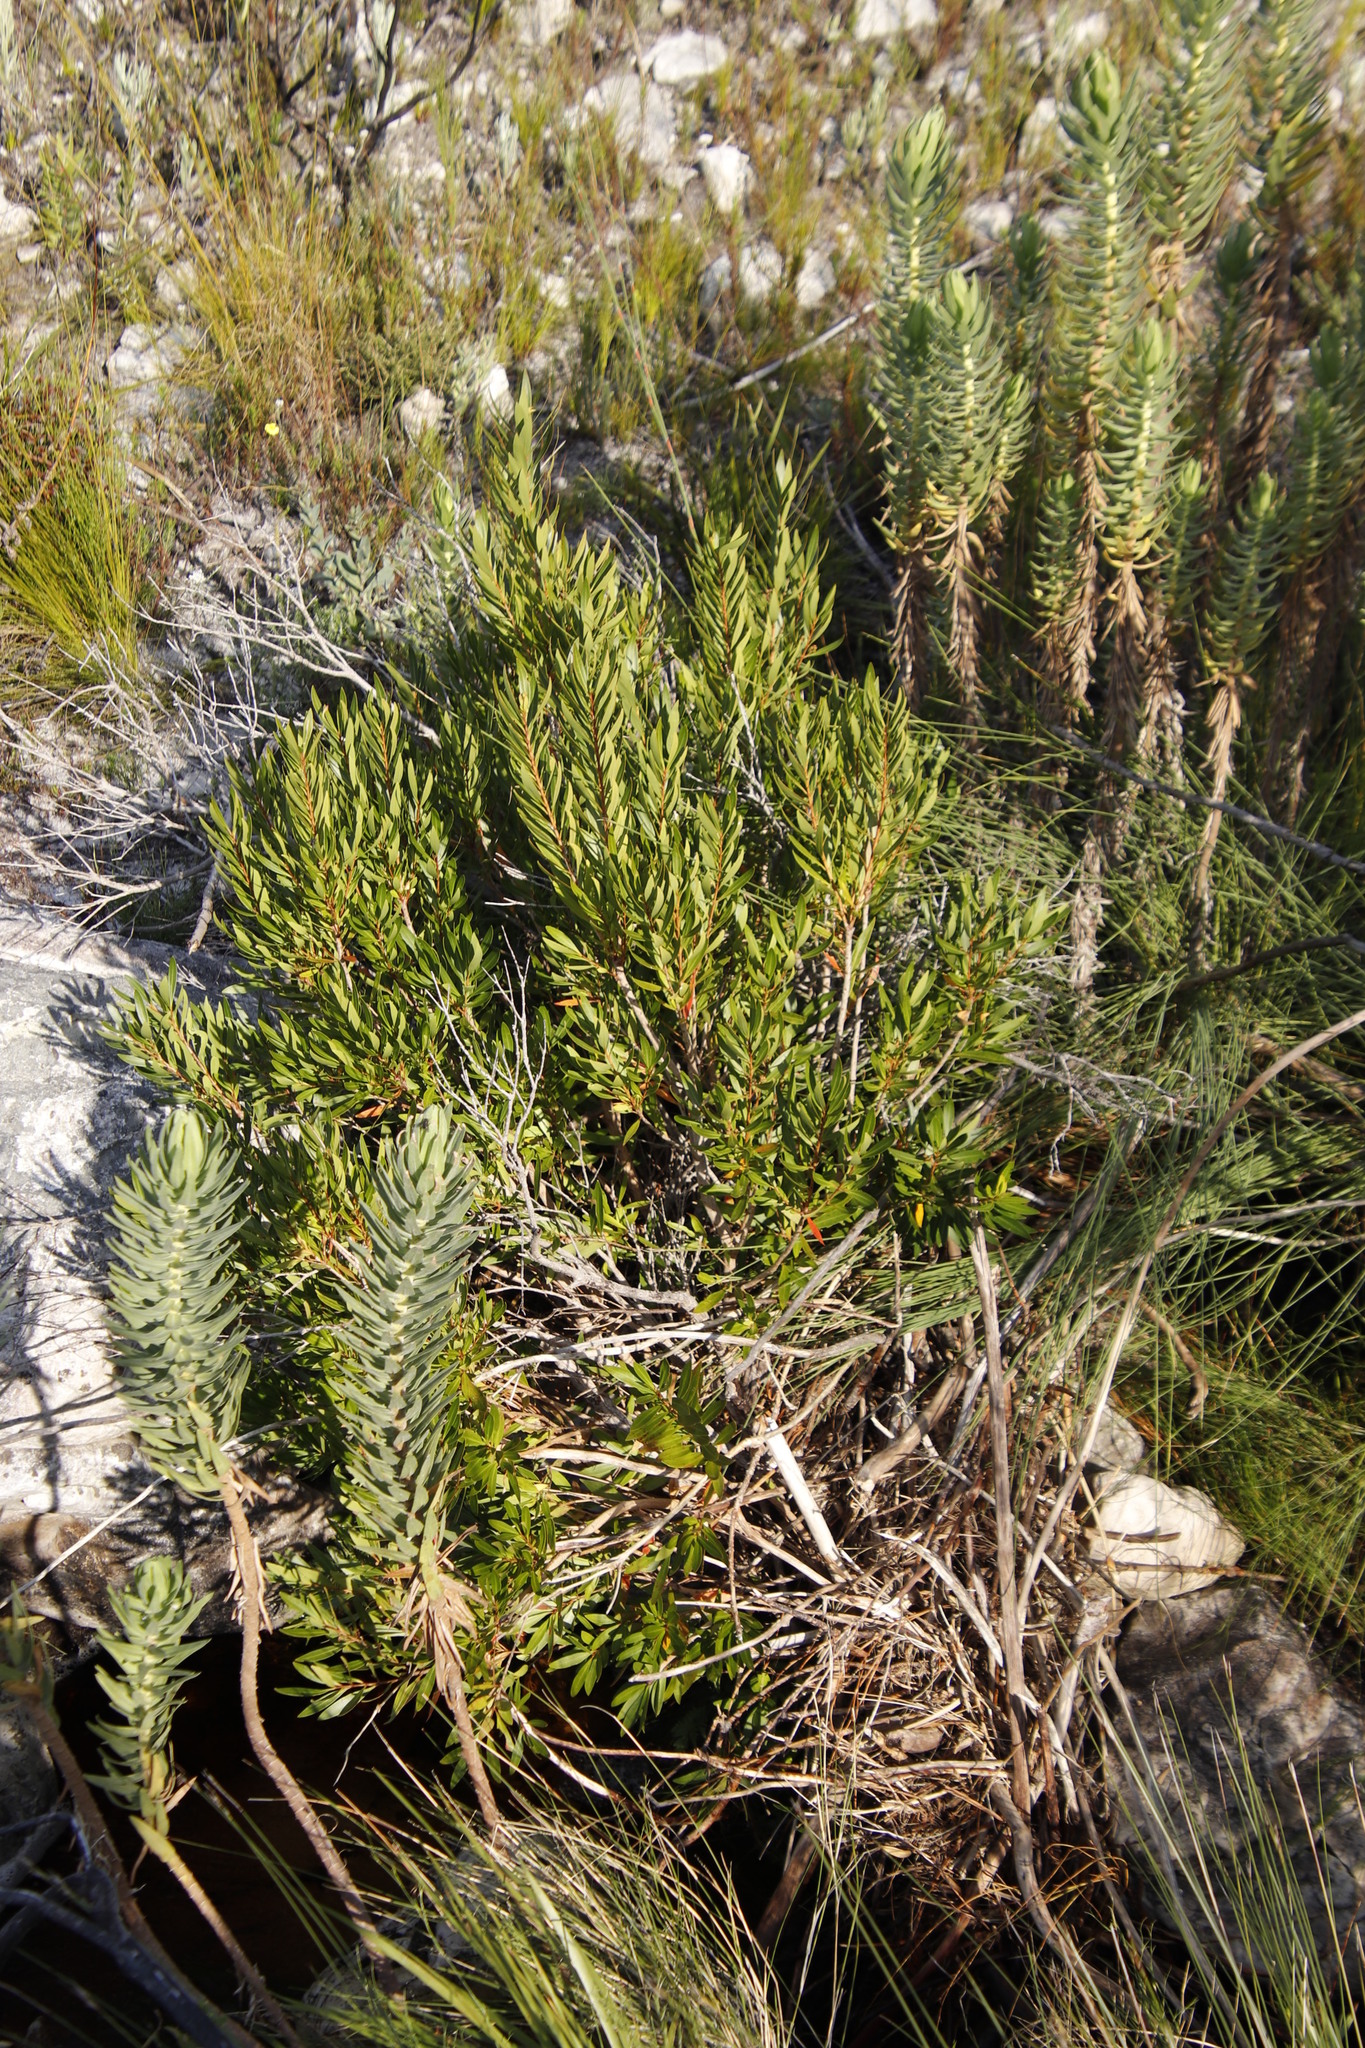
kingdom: Plantae
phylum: Tracheophyta
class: Magnoliopsida
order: Asterales
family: Asteraceae
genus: Osmitopsis
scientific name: Osmitopsis asteriscoides
